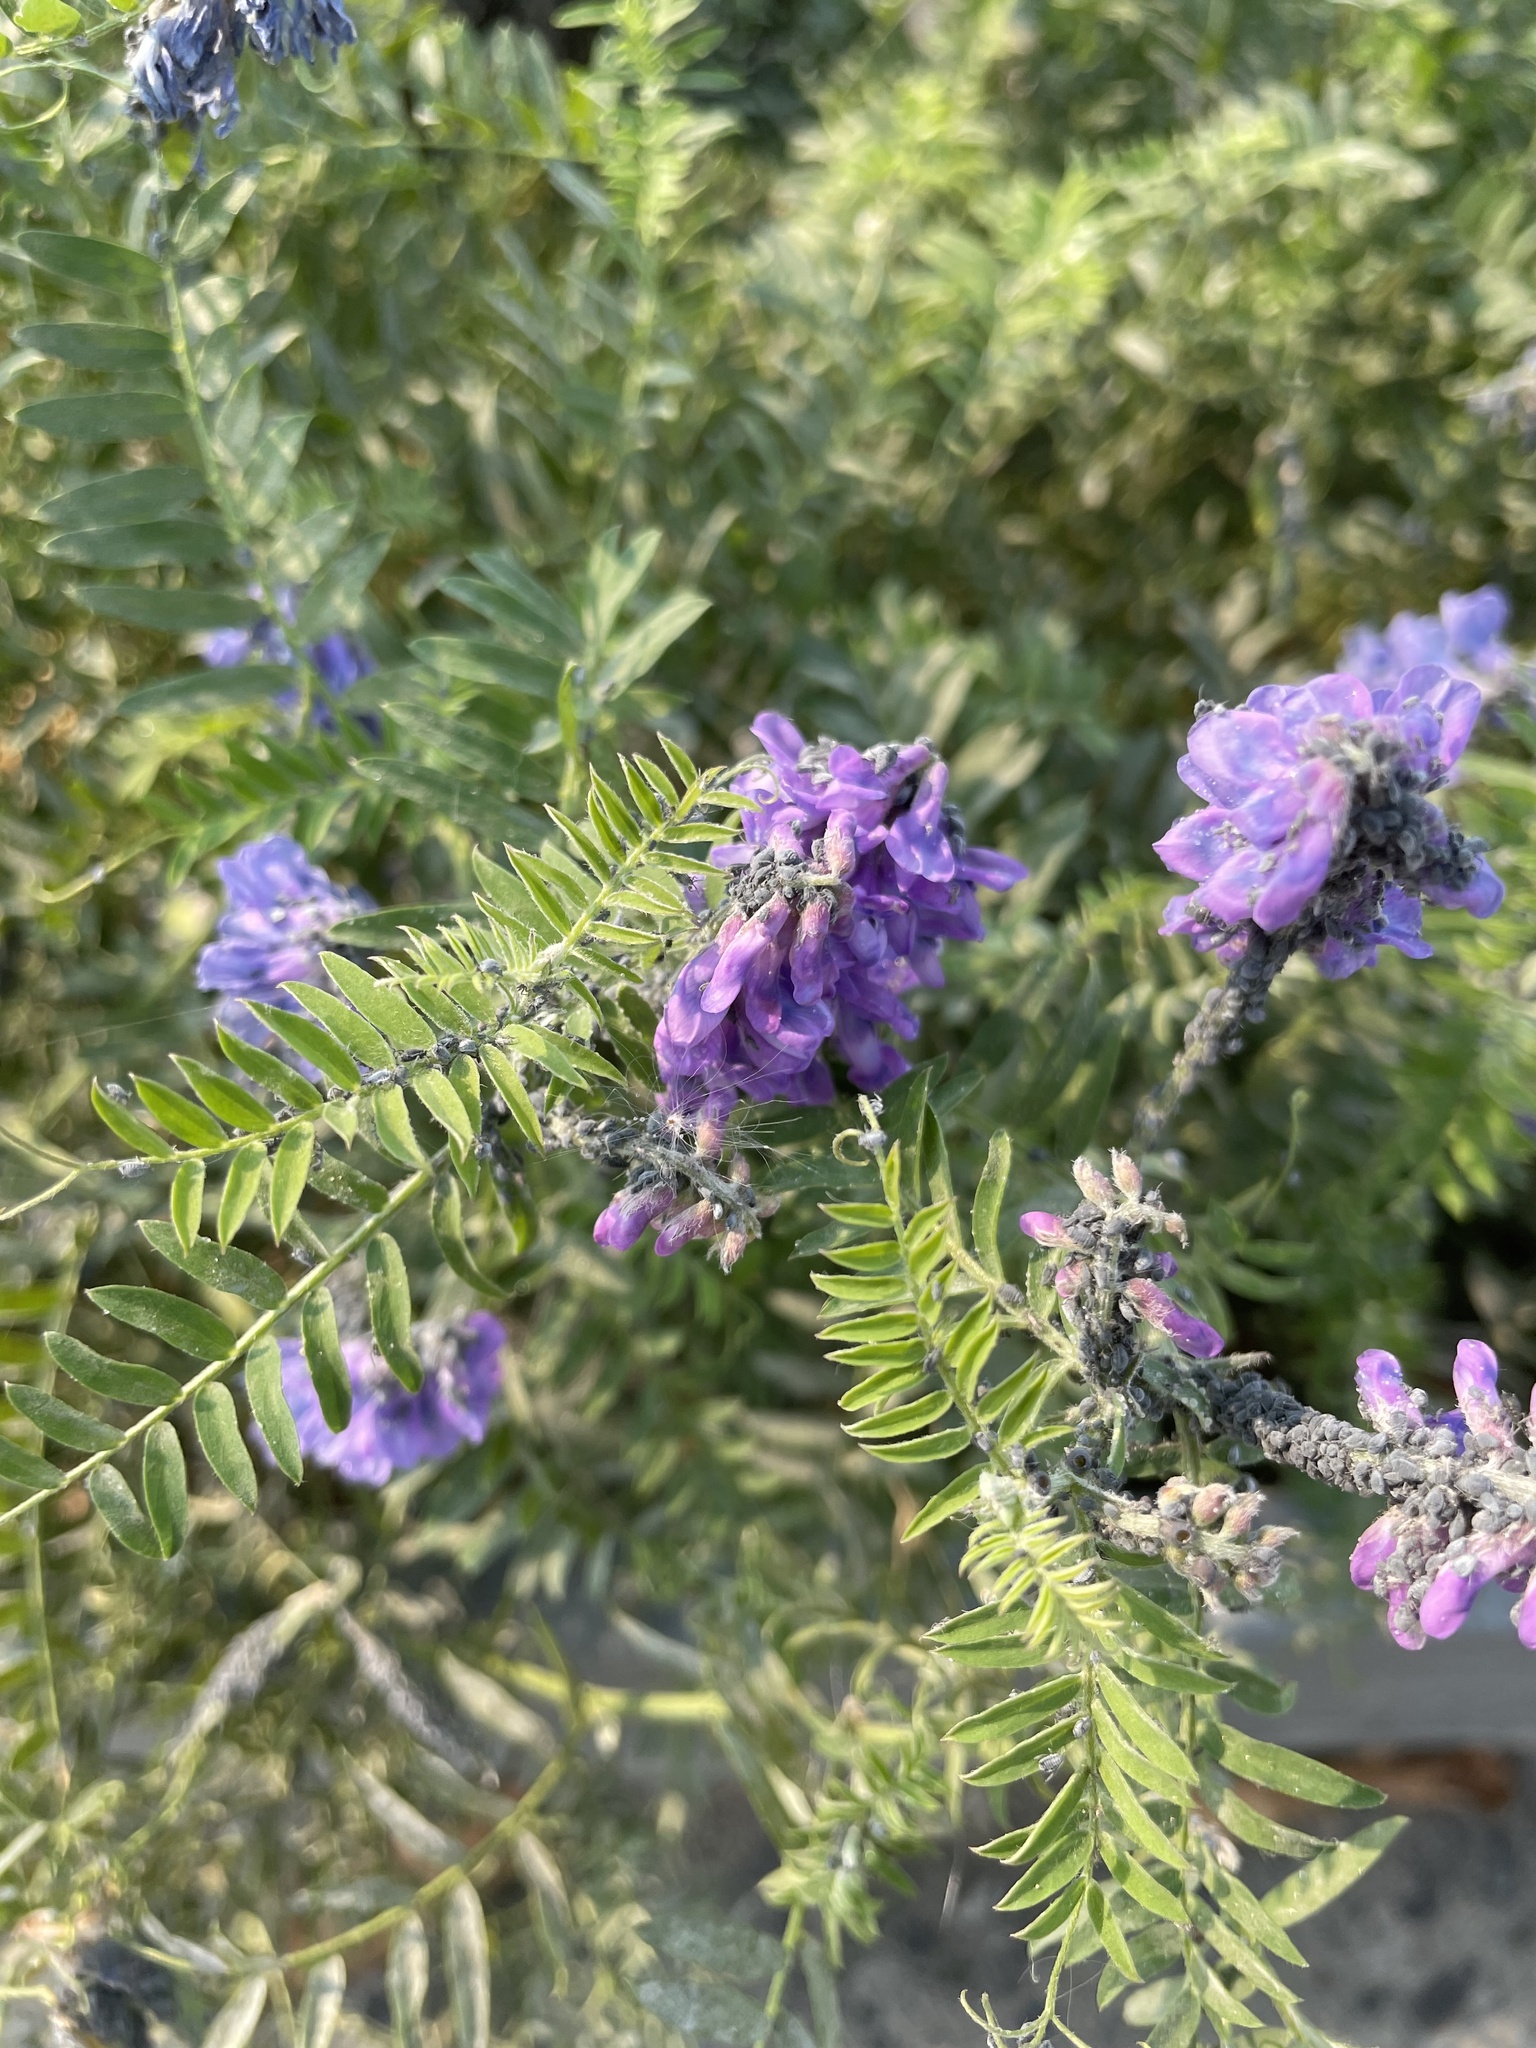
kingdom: Plantae
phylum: Tracheophyta
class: Magnoliopsida
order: Fabales
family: Fabaceae
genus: Vicia
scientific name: Vicia cracca
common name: Bird vetch
